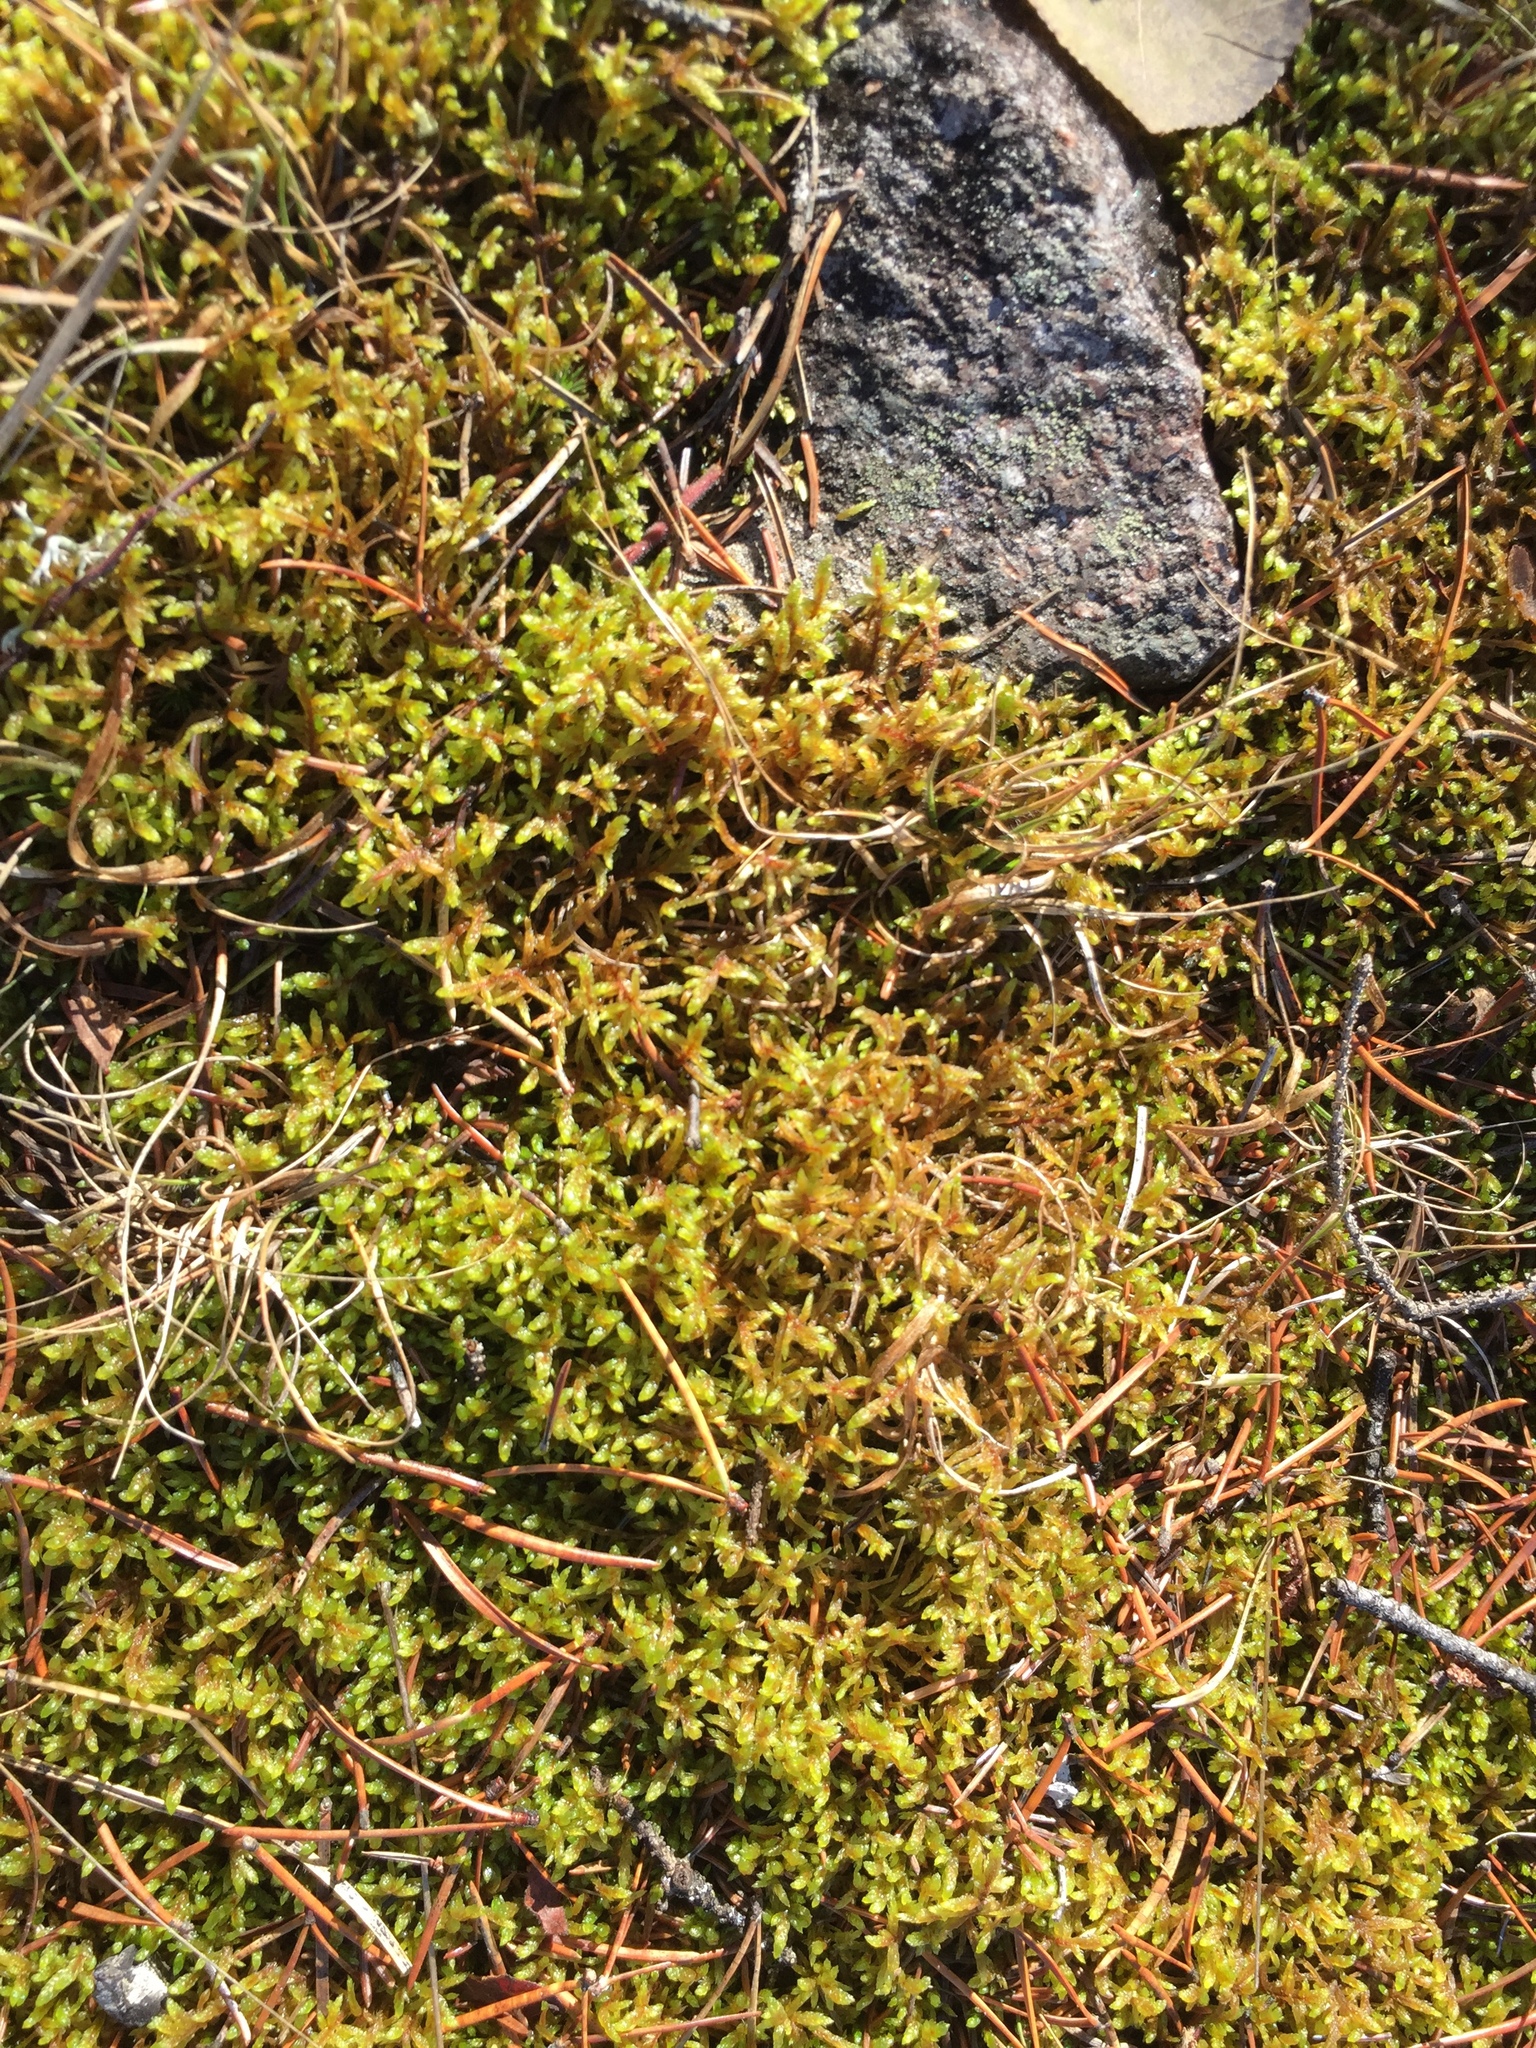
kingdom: Plantae
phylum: Bryophyta
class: Bryopsida
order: Hypnales
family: Hylocomiaceae
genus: Pleurozium
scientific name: Pleurozium schreberi
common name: Red-stemmed feather moss
